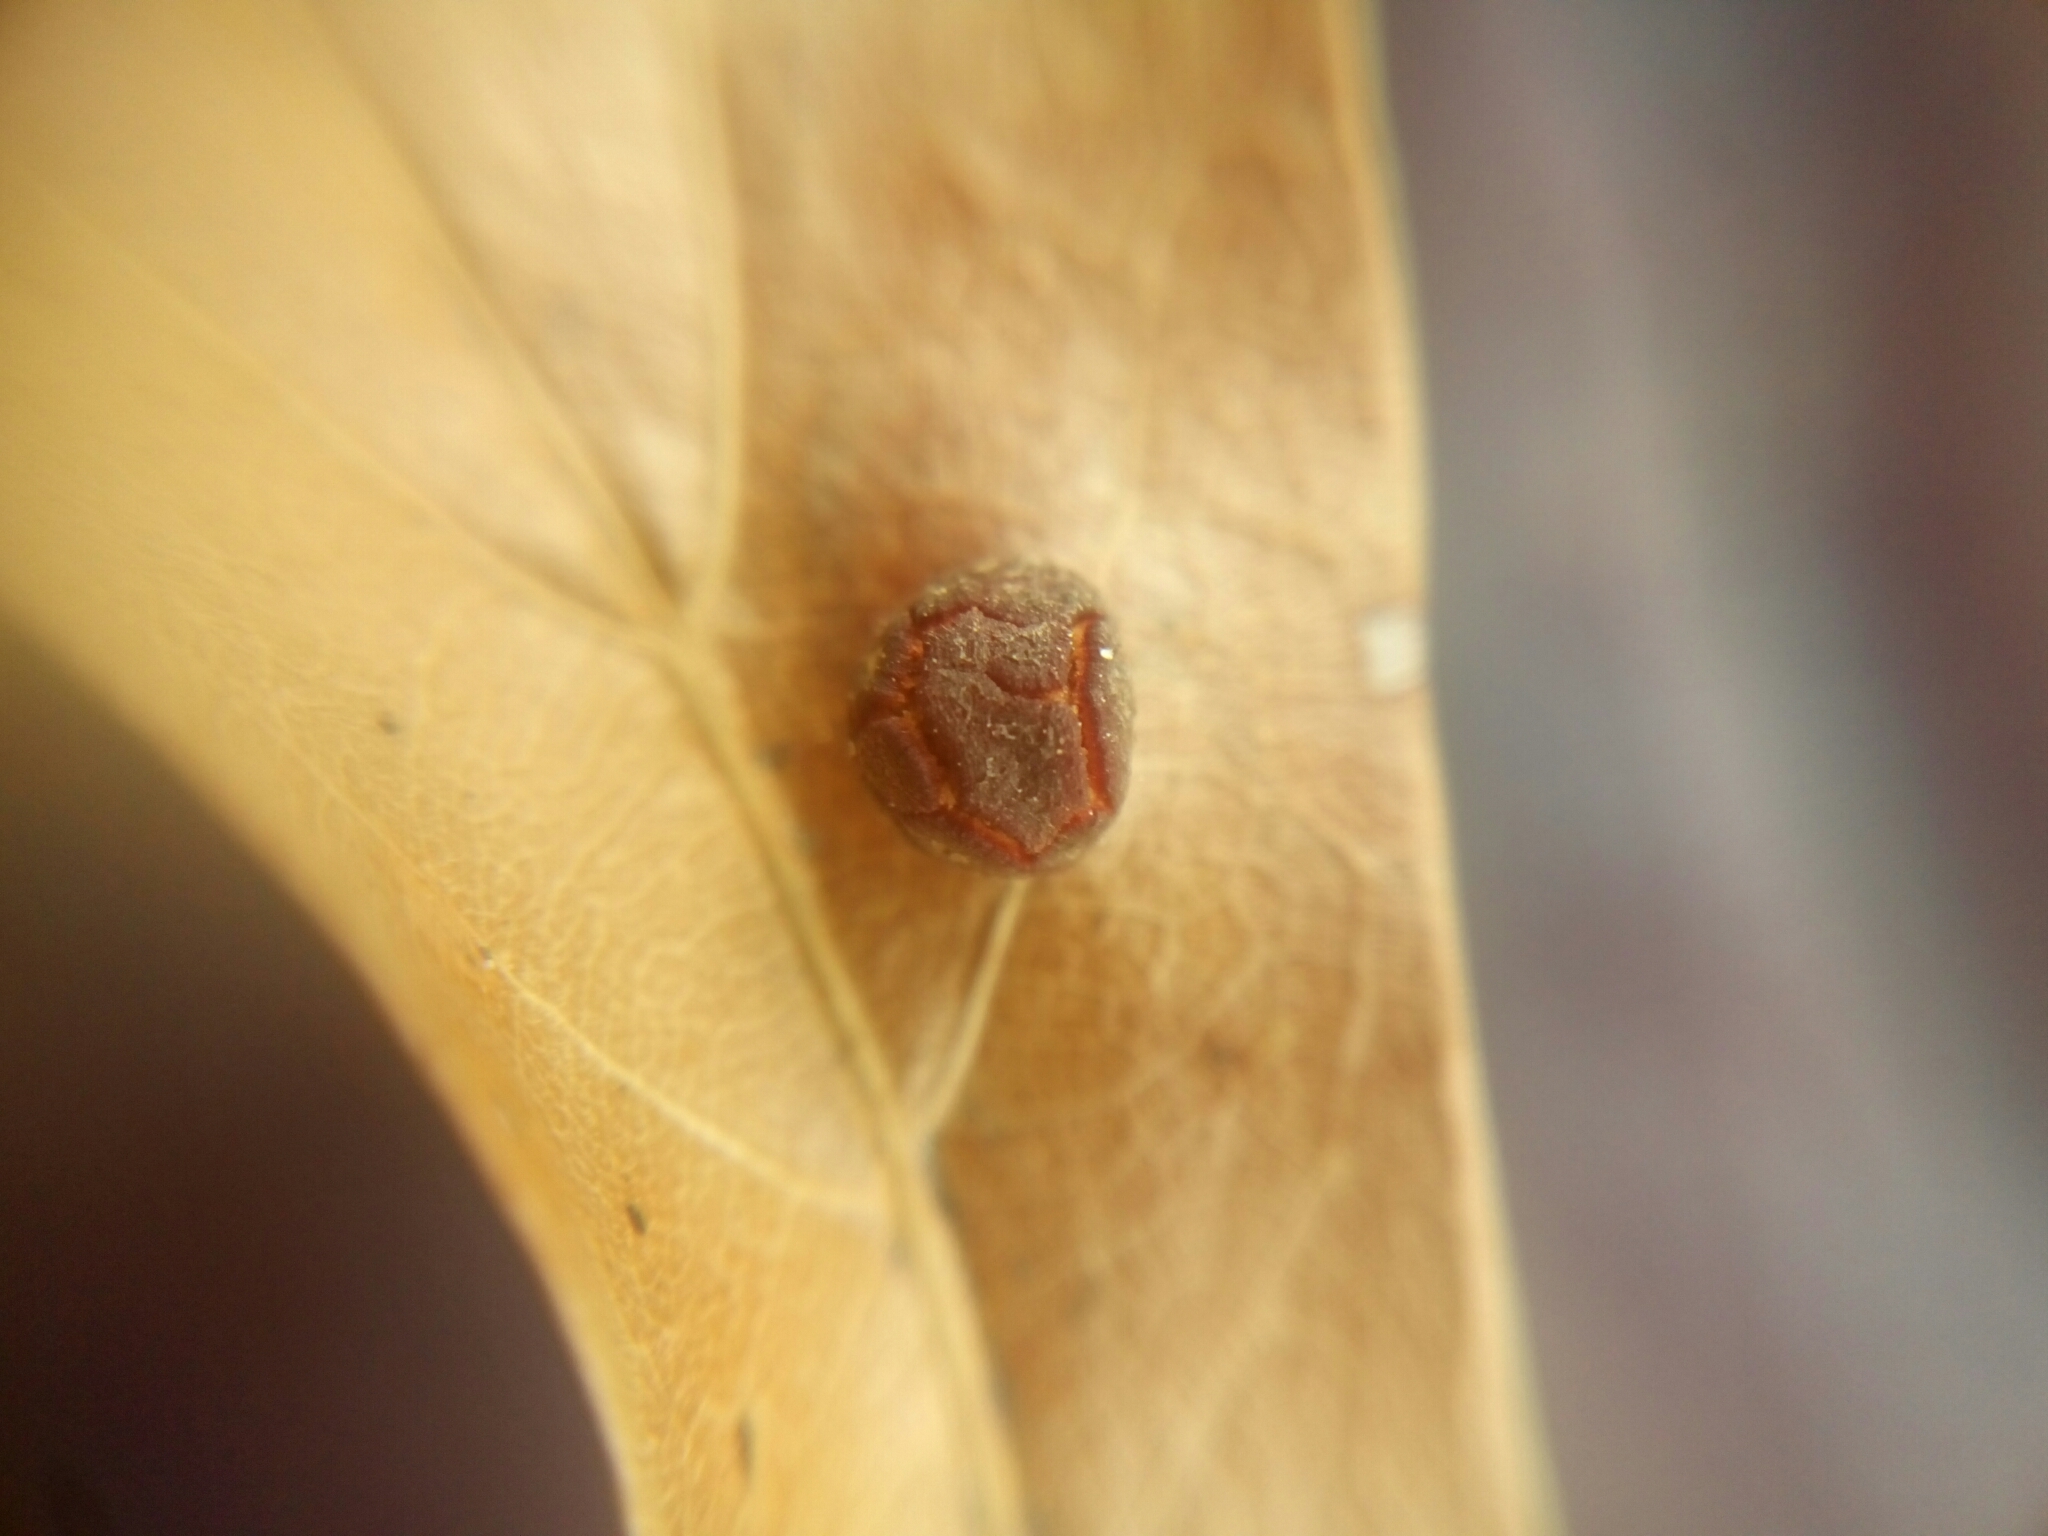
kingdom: Animalia
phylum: Arthropoda
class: Insecta
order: Diptera
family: Cecidomyiidae
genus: Polystepha
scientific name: Polystepha pilulae
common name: Oak leaf gall midge
